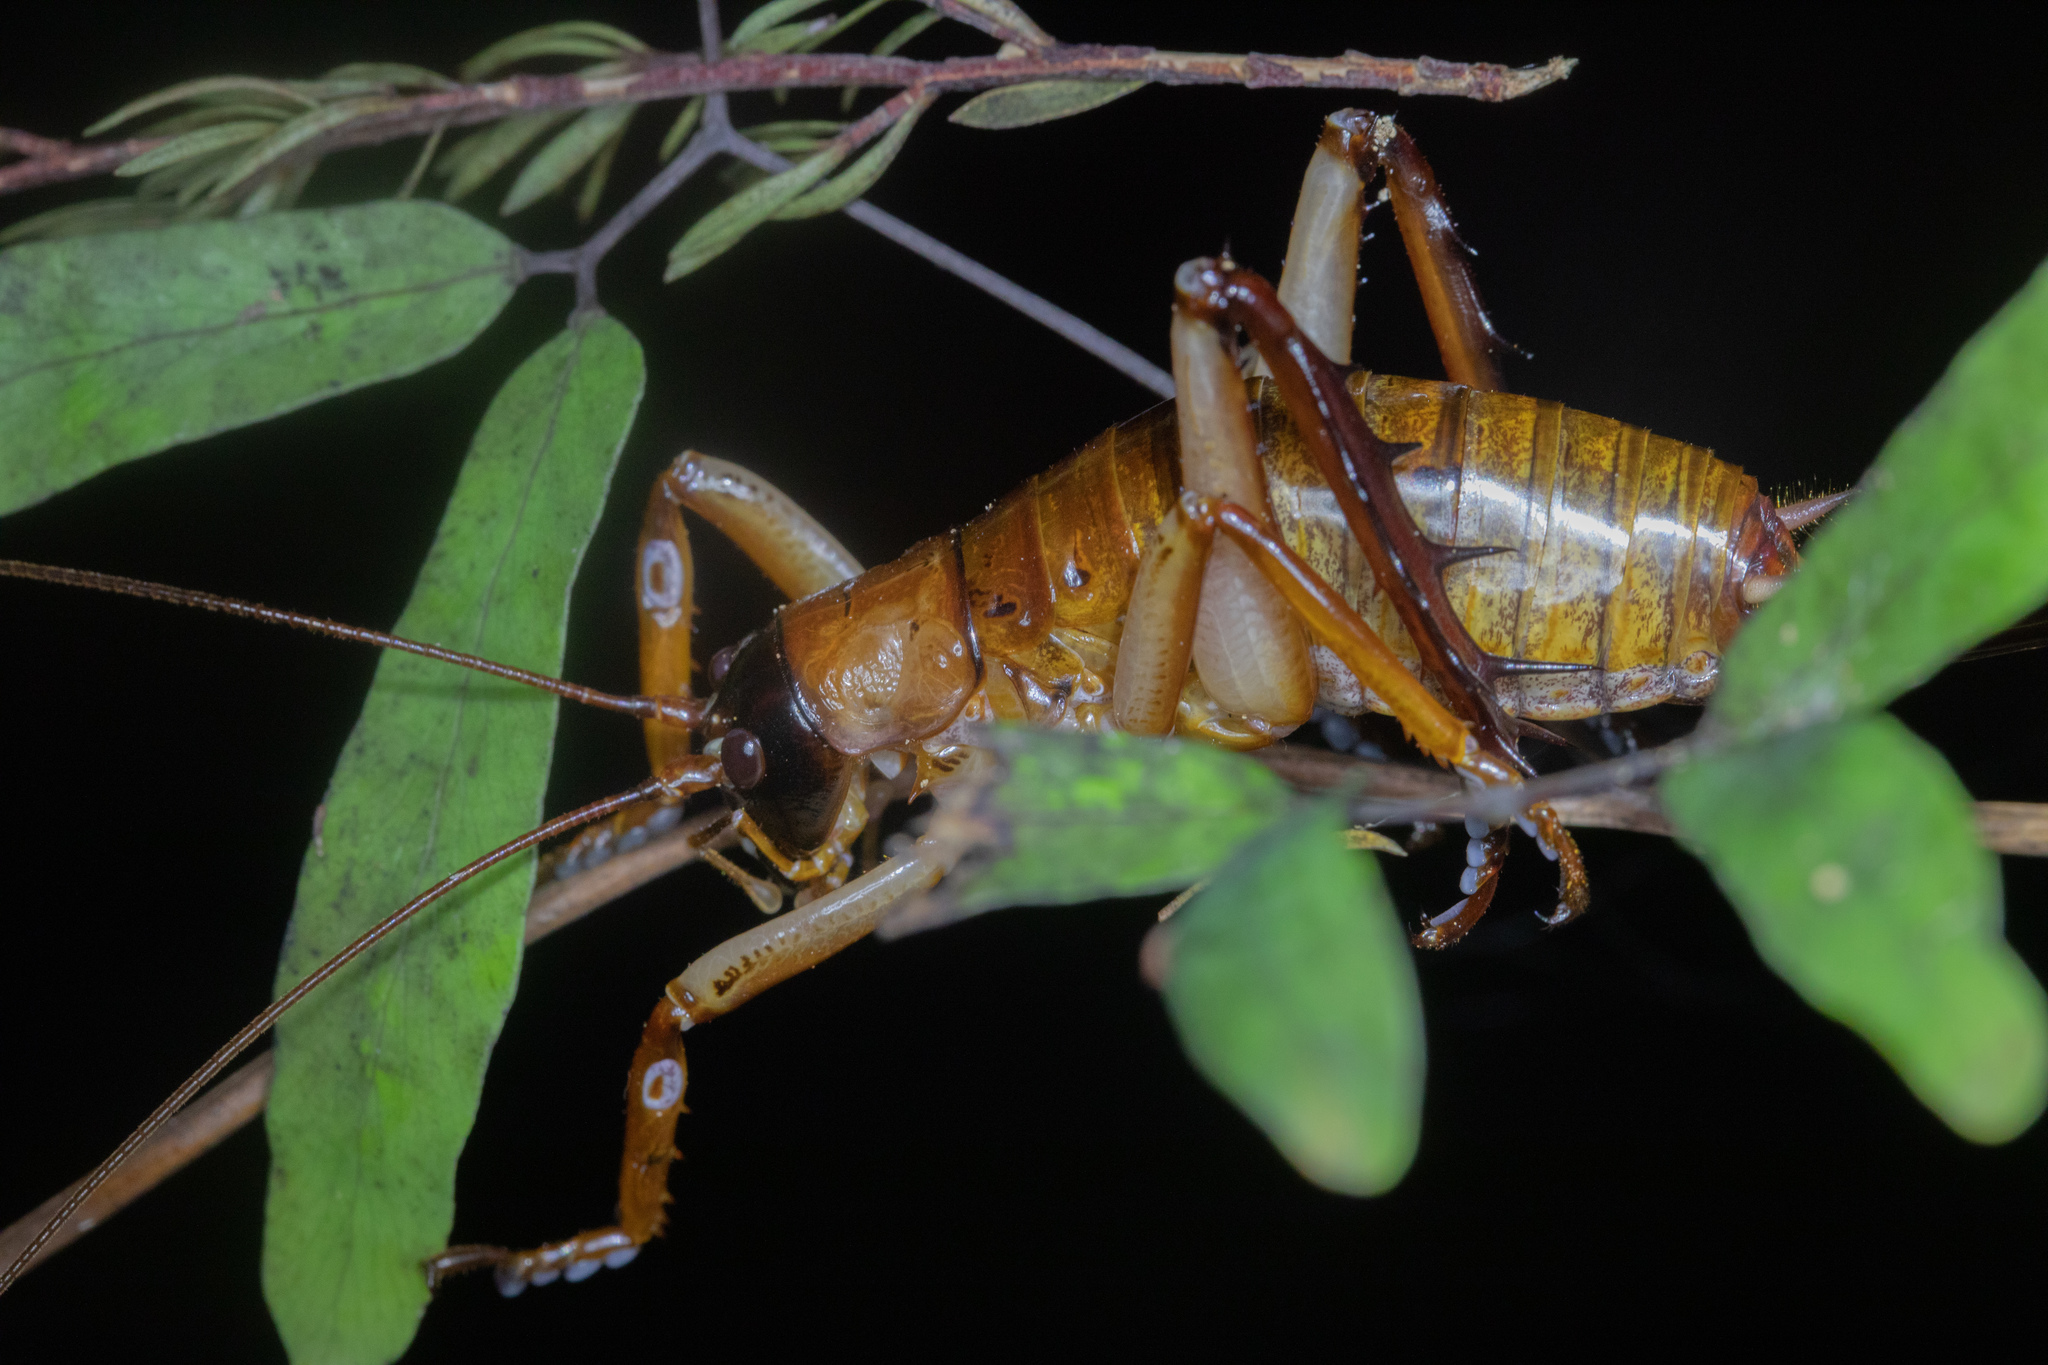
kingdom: Animalia
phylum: Arthropoda
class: Insecta
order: Orthoptera
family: Anostostomatidae
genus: Hemideina
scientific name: Hemideina thoracica
